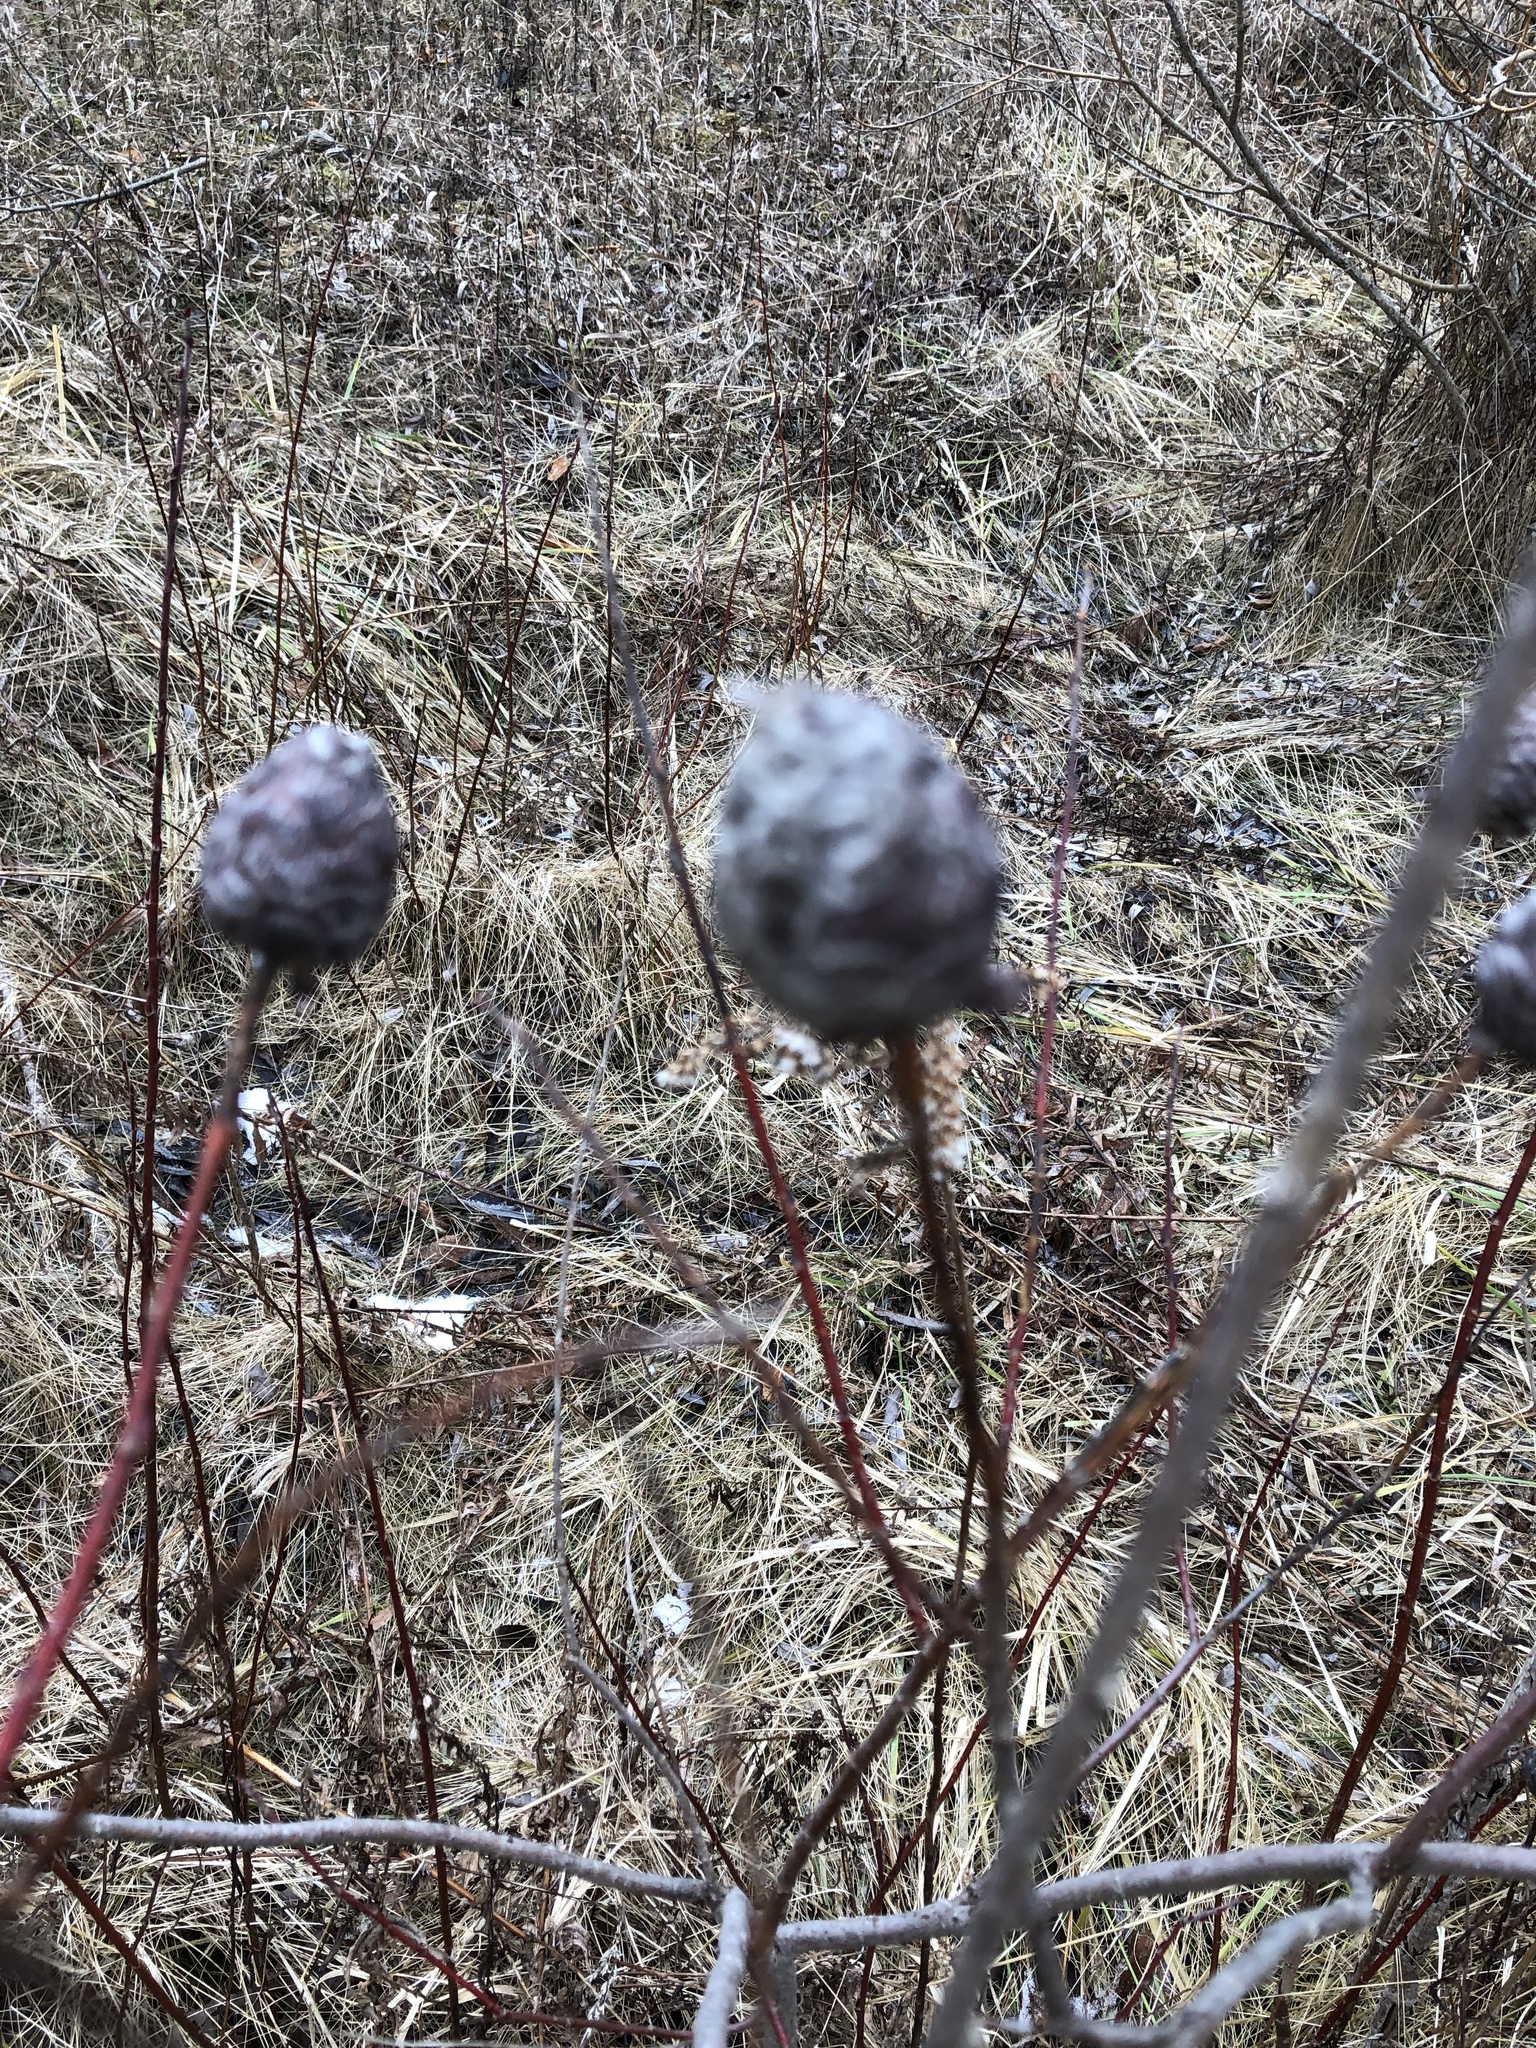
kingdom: Animalia
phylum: Arthropoda
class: Insecta
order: Diptera
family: Cecidomyiidae
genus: Rabdophaga
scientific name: Rabdophaga strobiloides
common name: Willow pinecone gall midge
